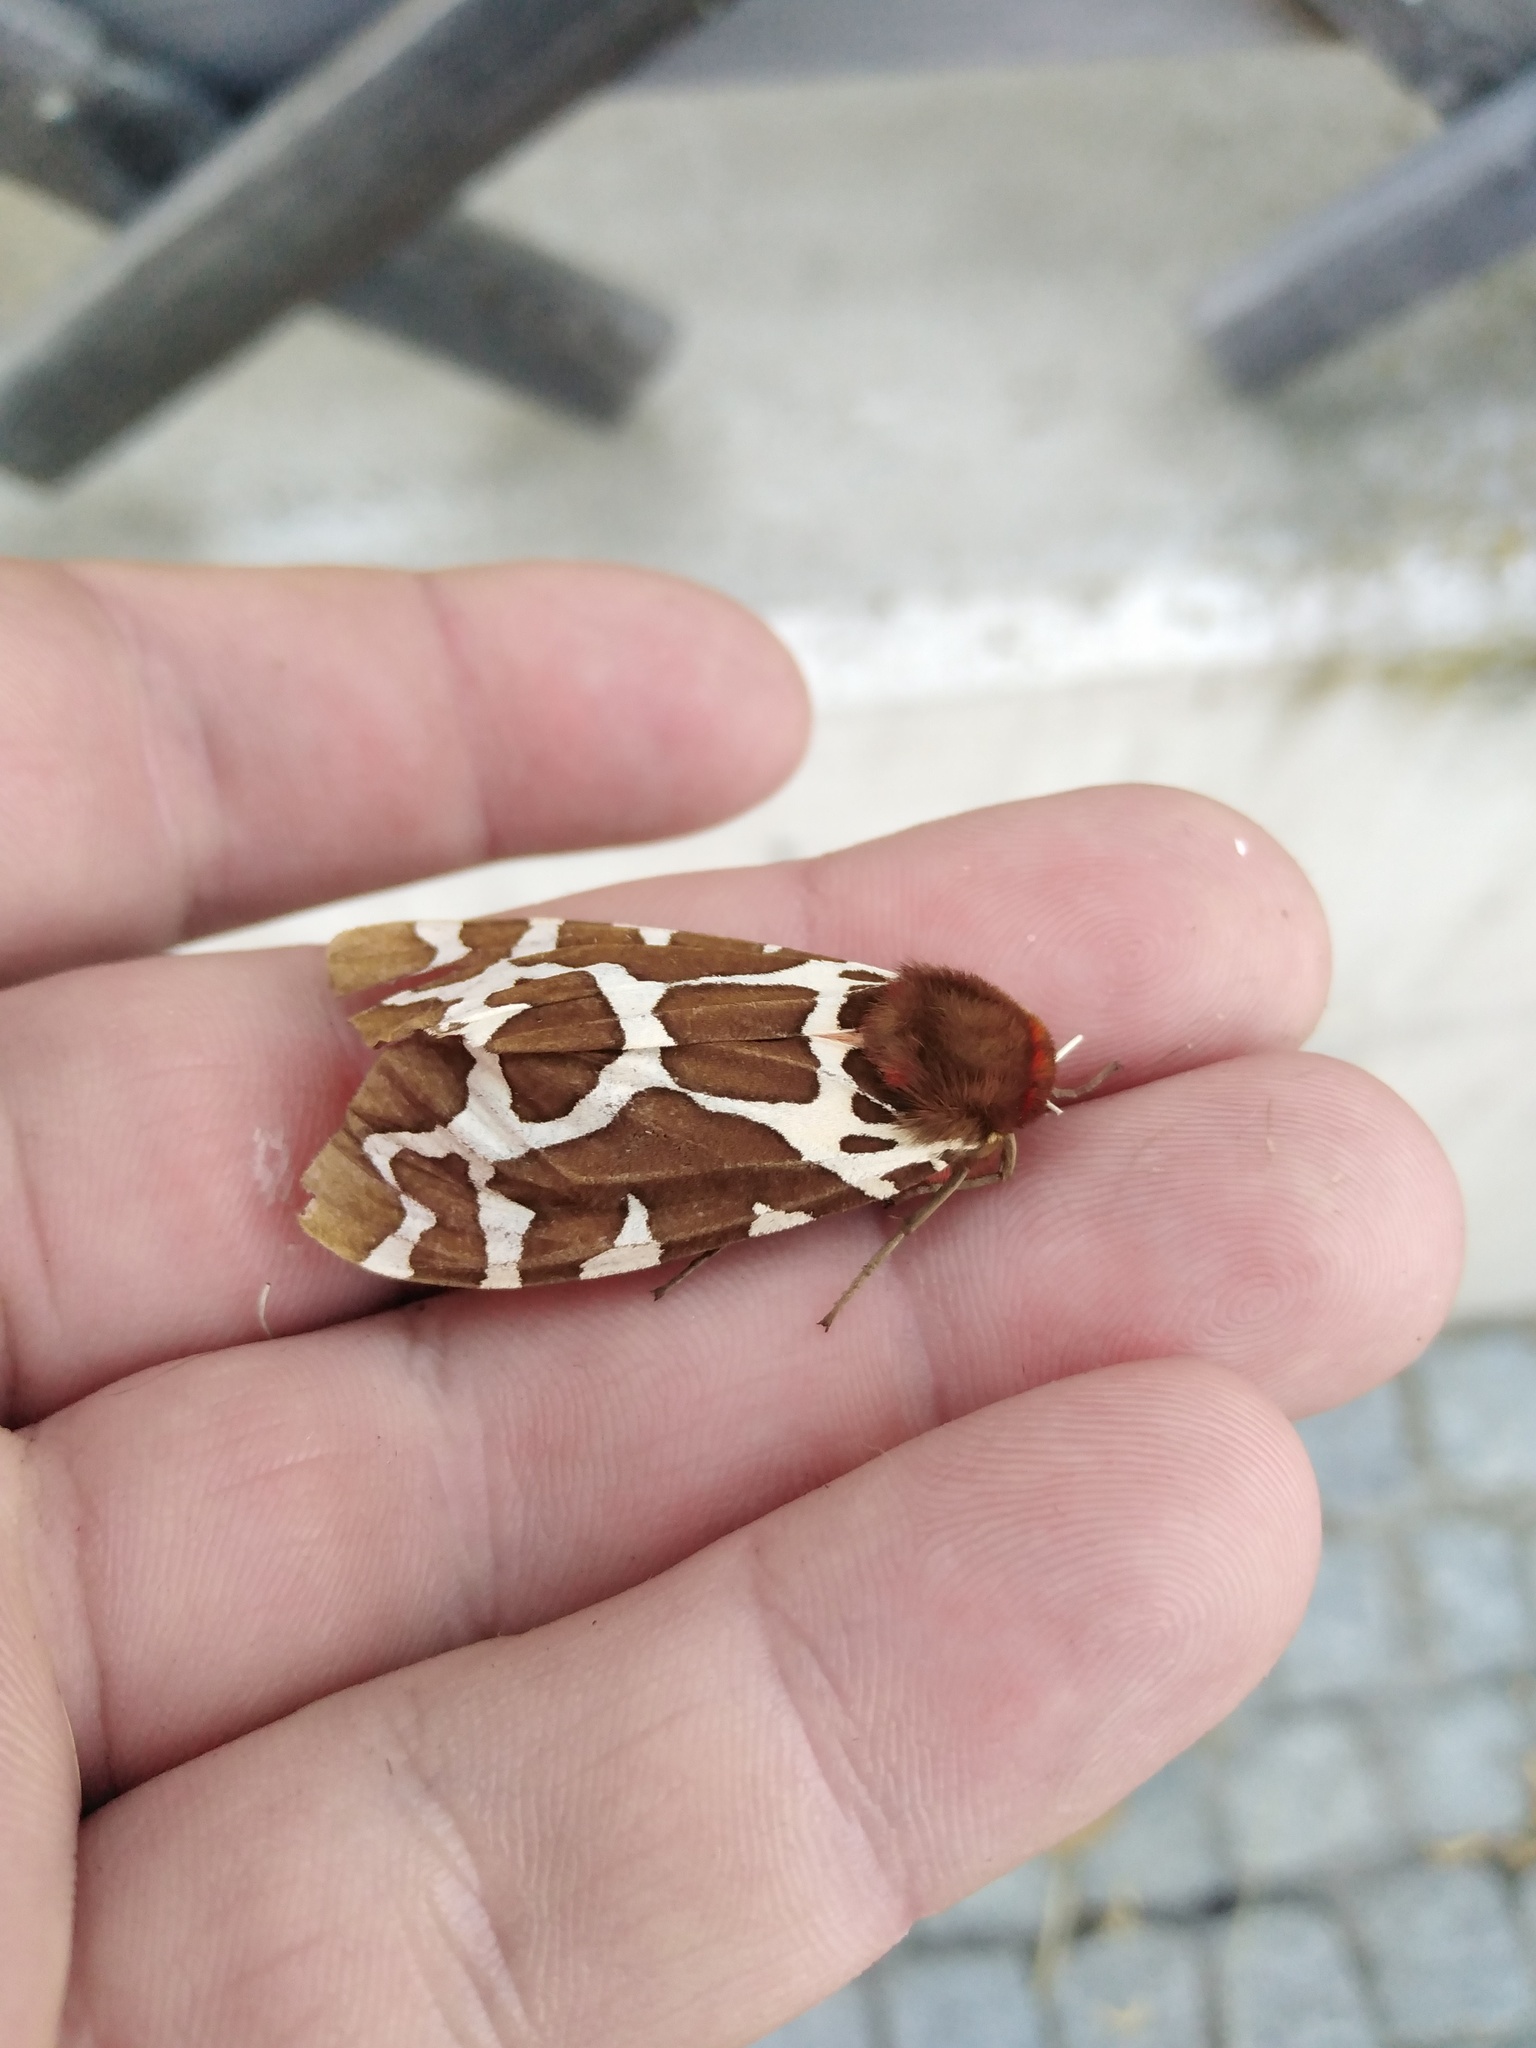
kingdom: Animalia
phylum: Arthropoda
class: Insecta
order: Lepidoptera
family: Erebidae
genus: Arctia
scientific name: Arctia caja
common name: Garden tiger
